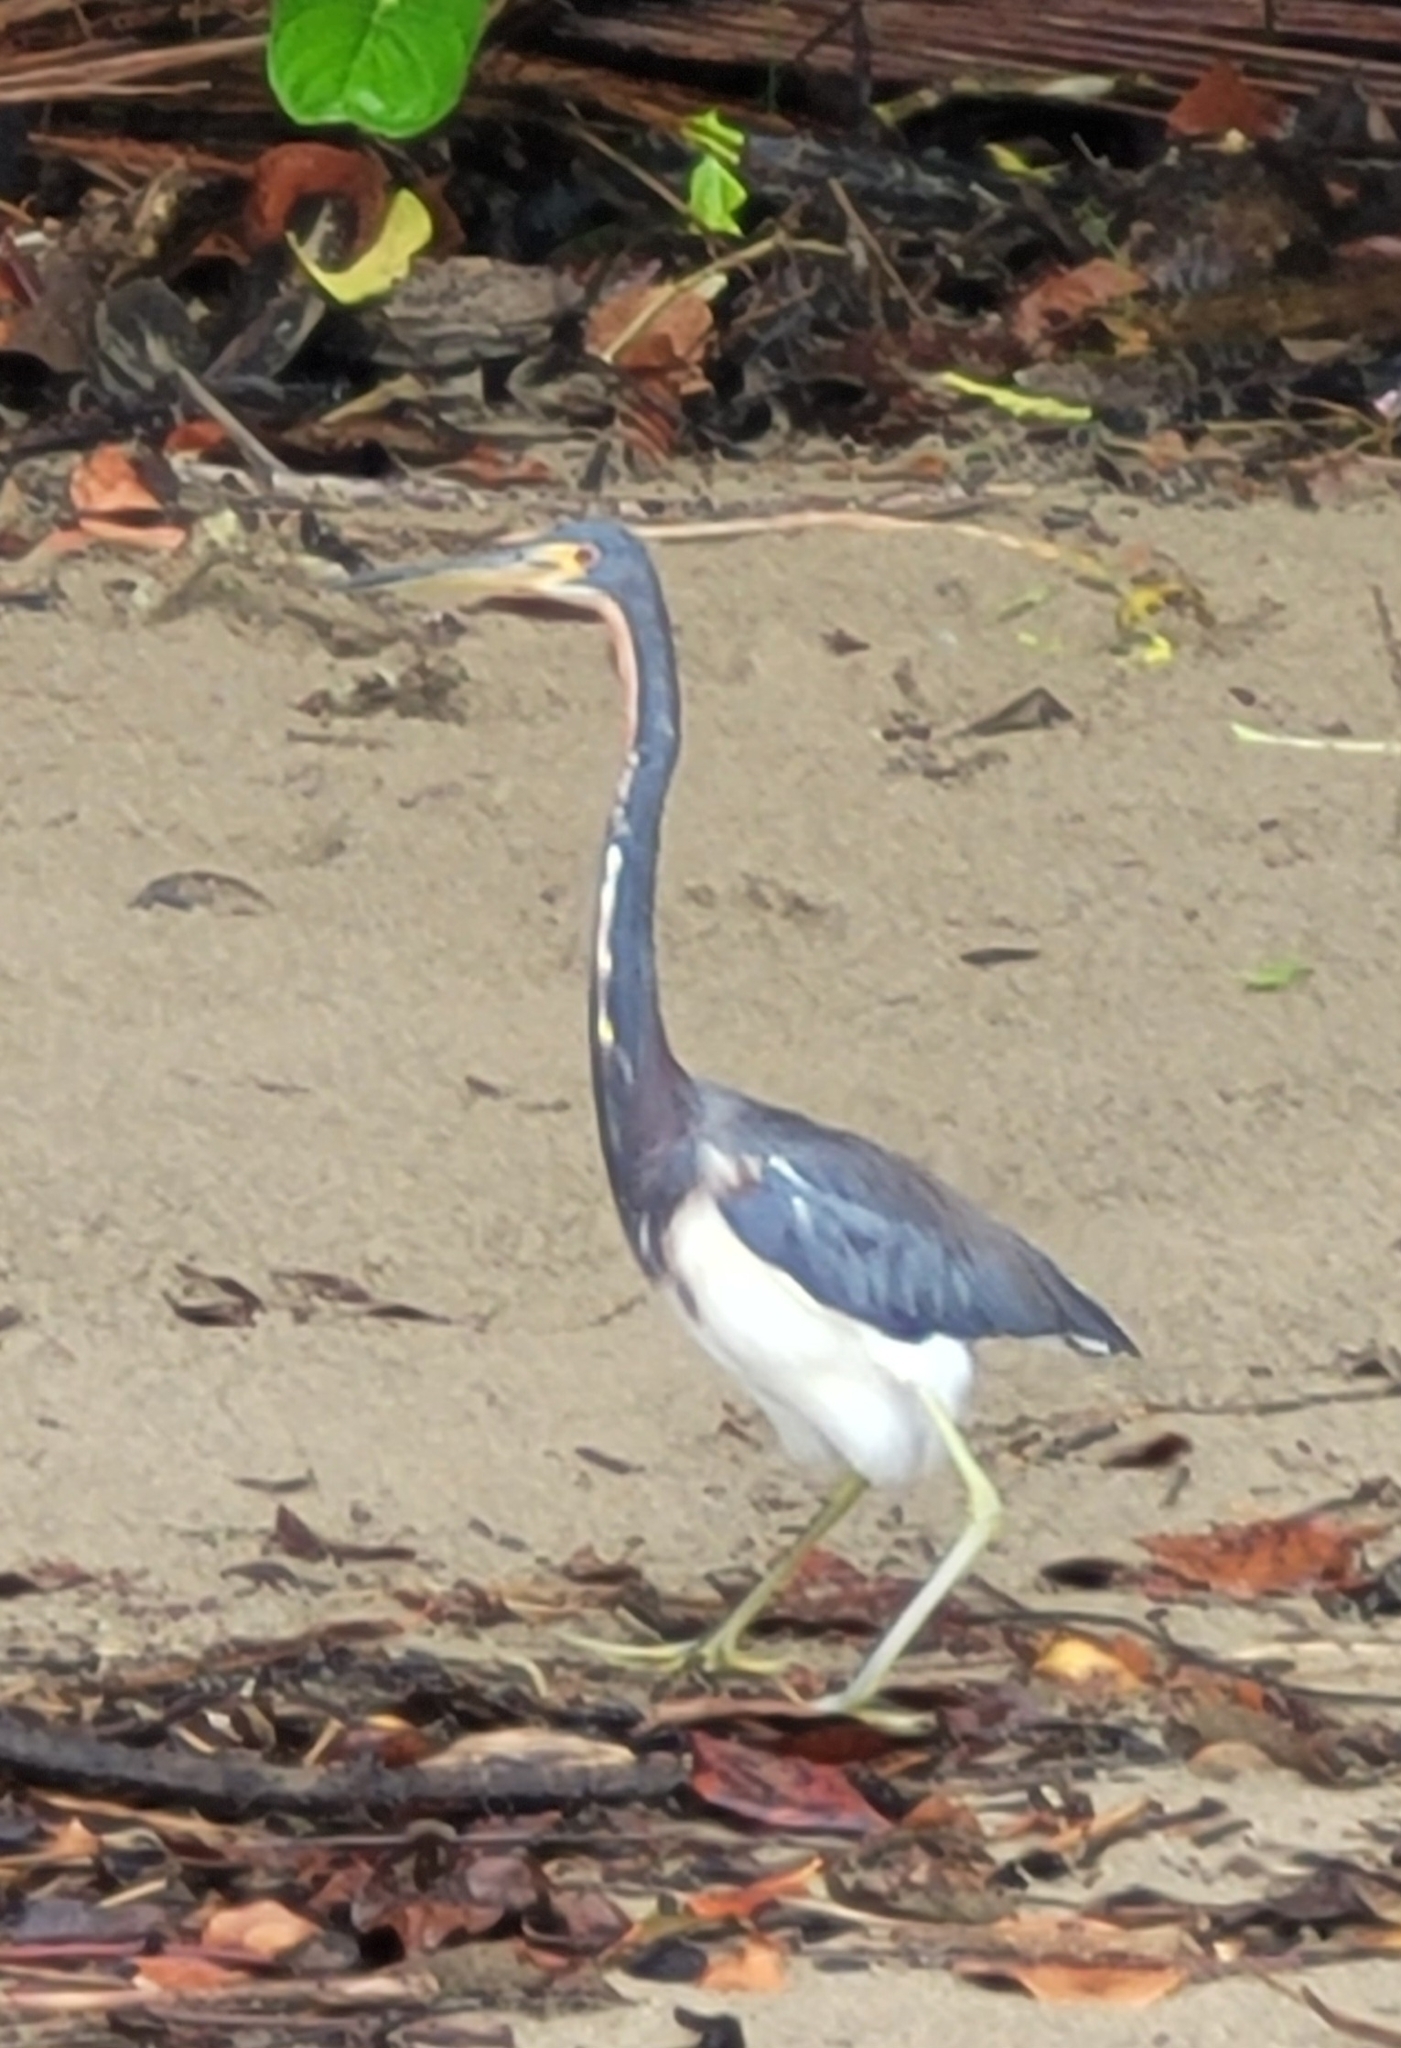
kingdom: Animalia
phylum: Chordata
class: Aves
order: Pelecaniformes
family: Ardeidae
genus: Egretta
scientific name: Egretta tricolor
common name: Tricolored heron
